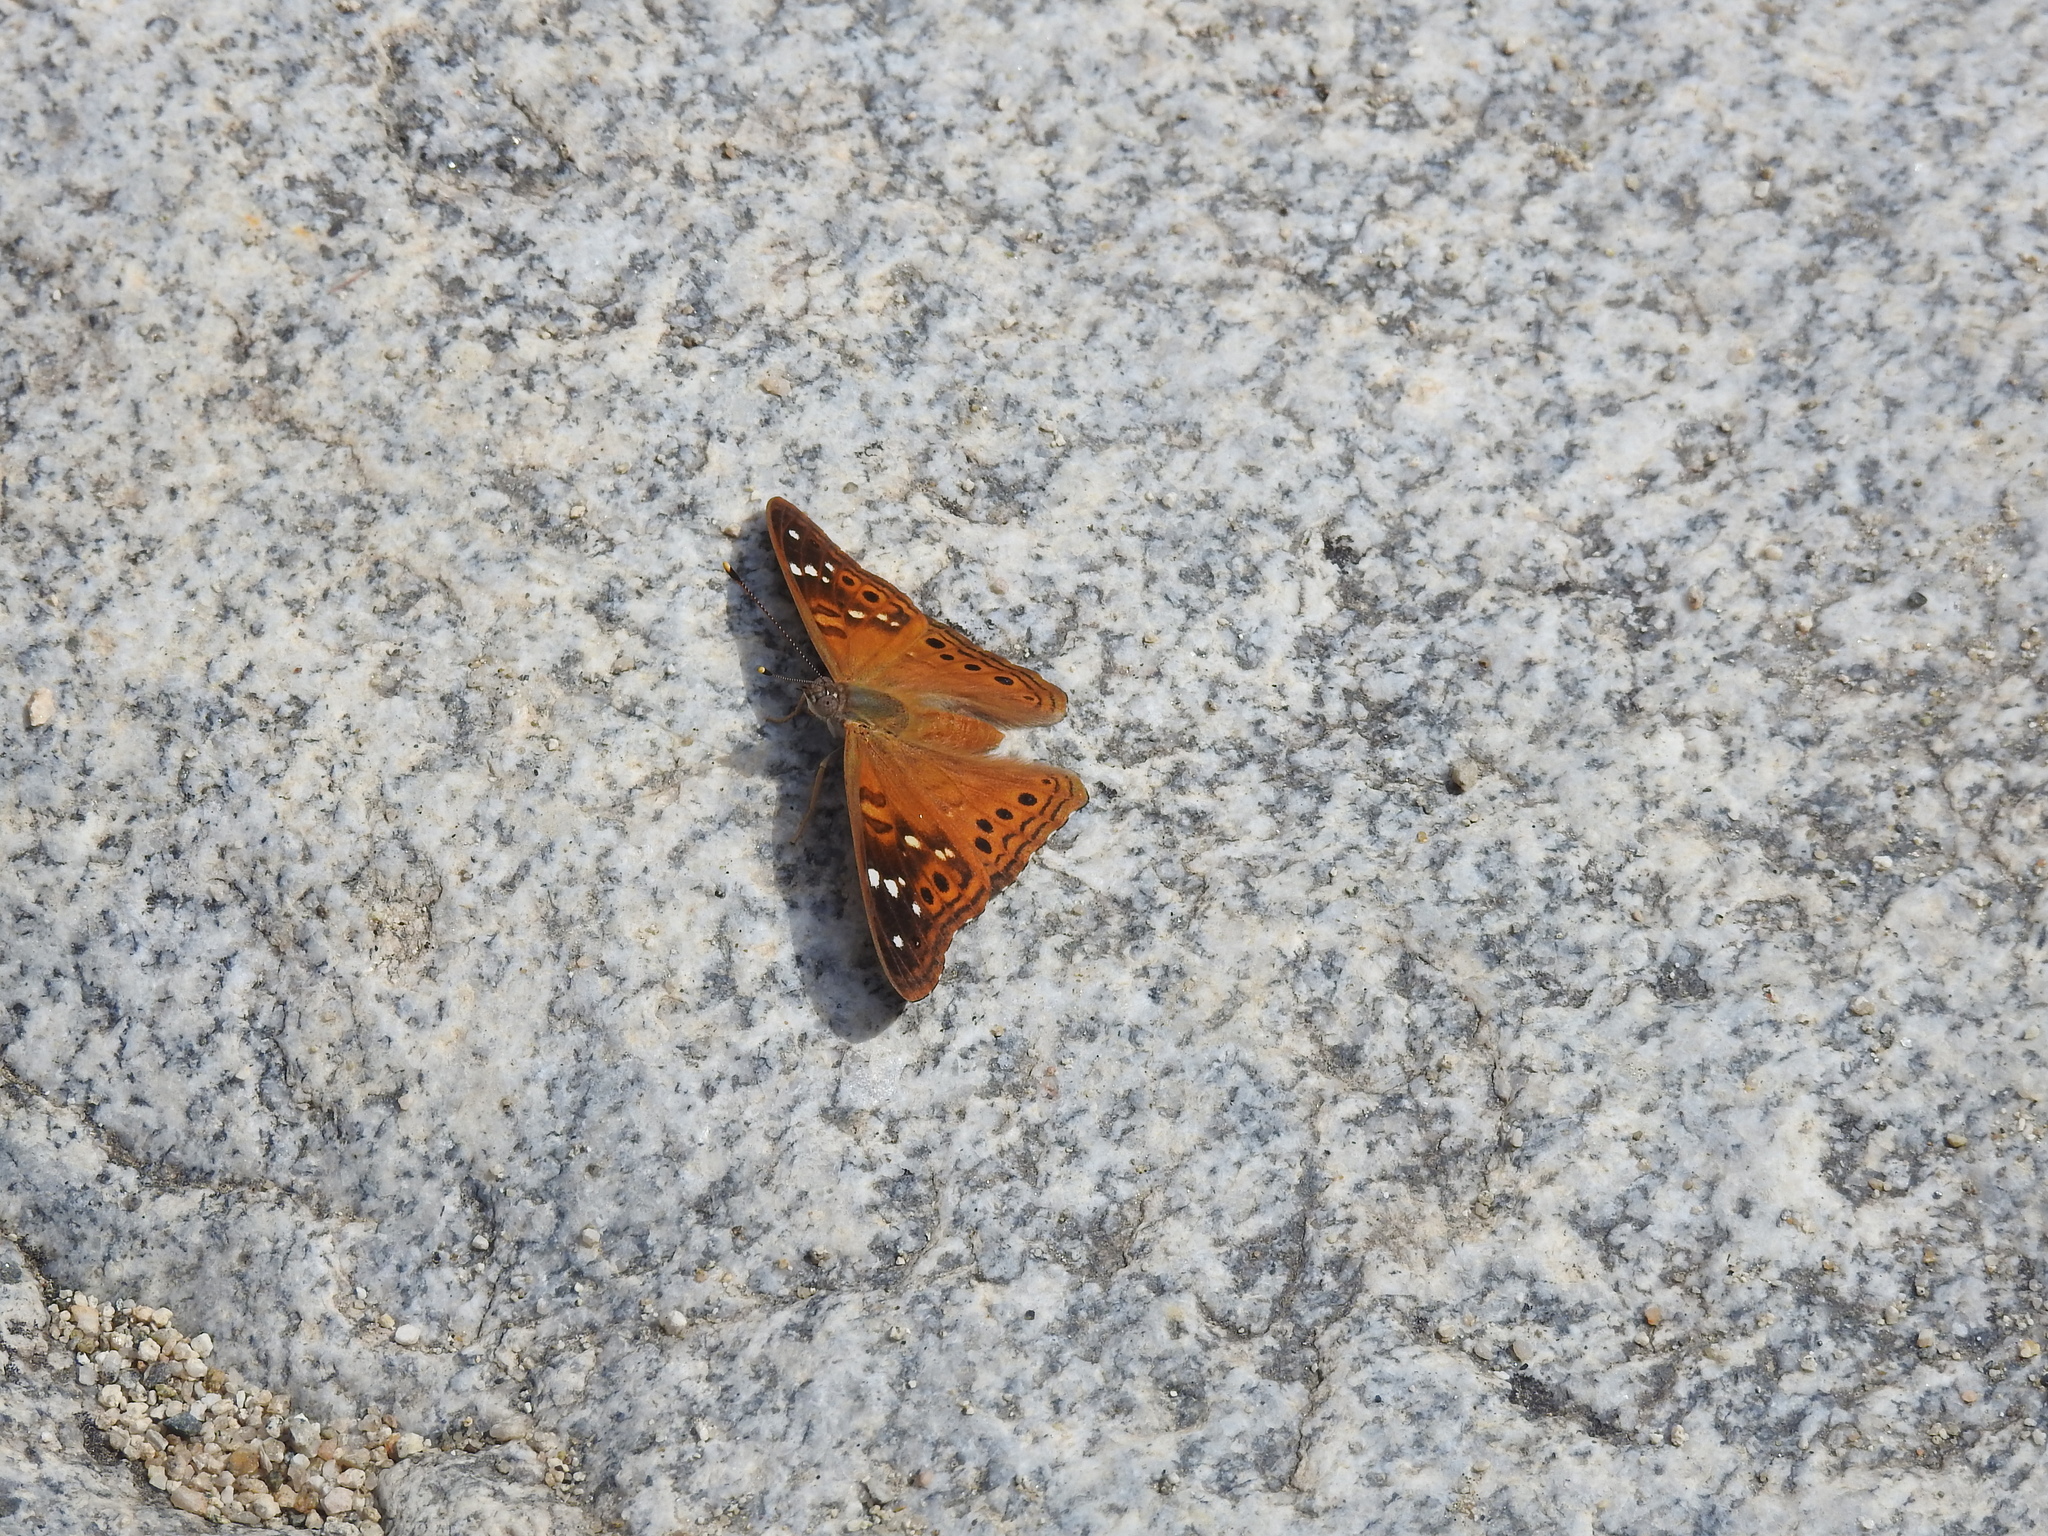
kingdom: Animalia
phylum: Arthropoda
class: Insecta
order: Lepidoptera
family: Nymphalidae
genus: Asterocampa
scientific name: Asterocampa leilia
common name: Empress leilia
